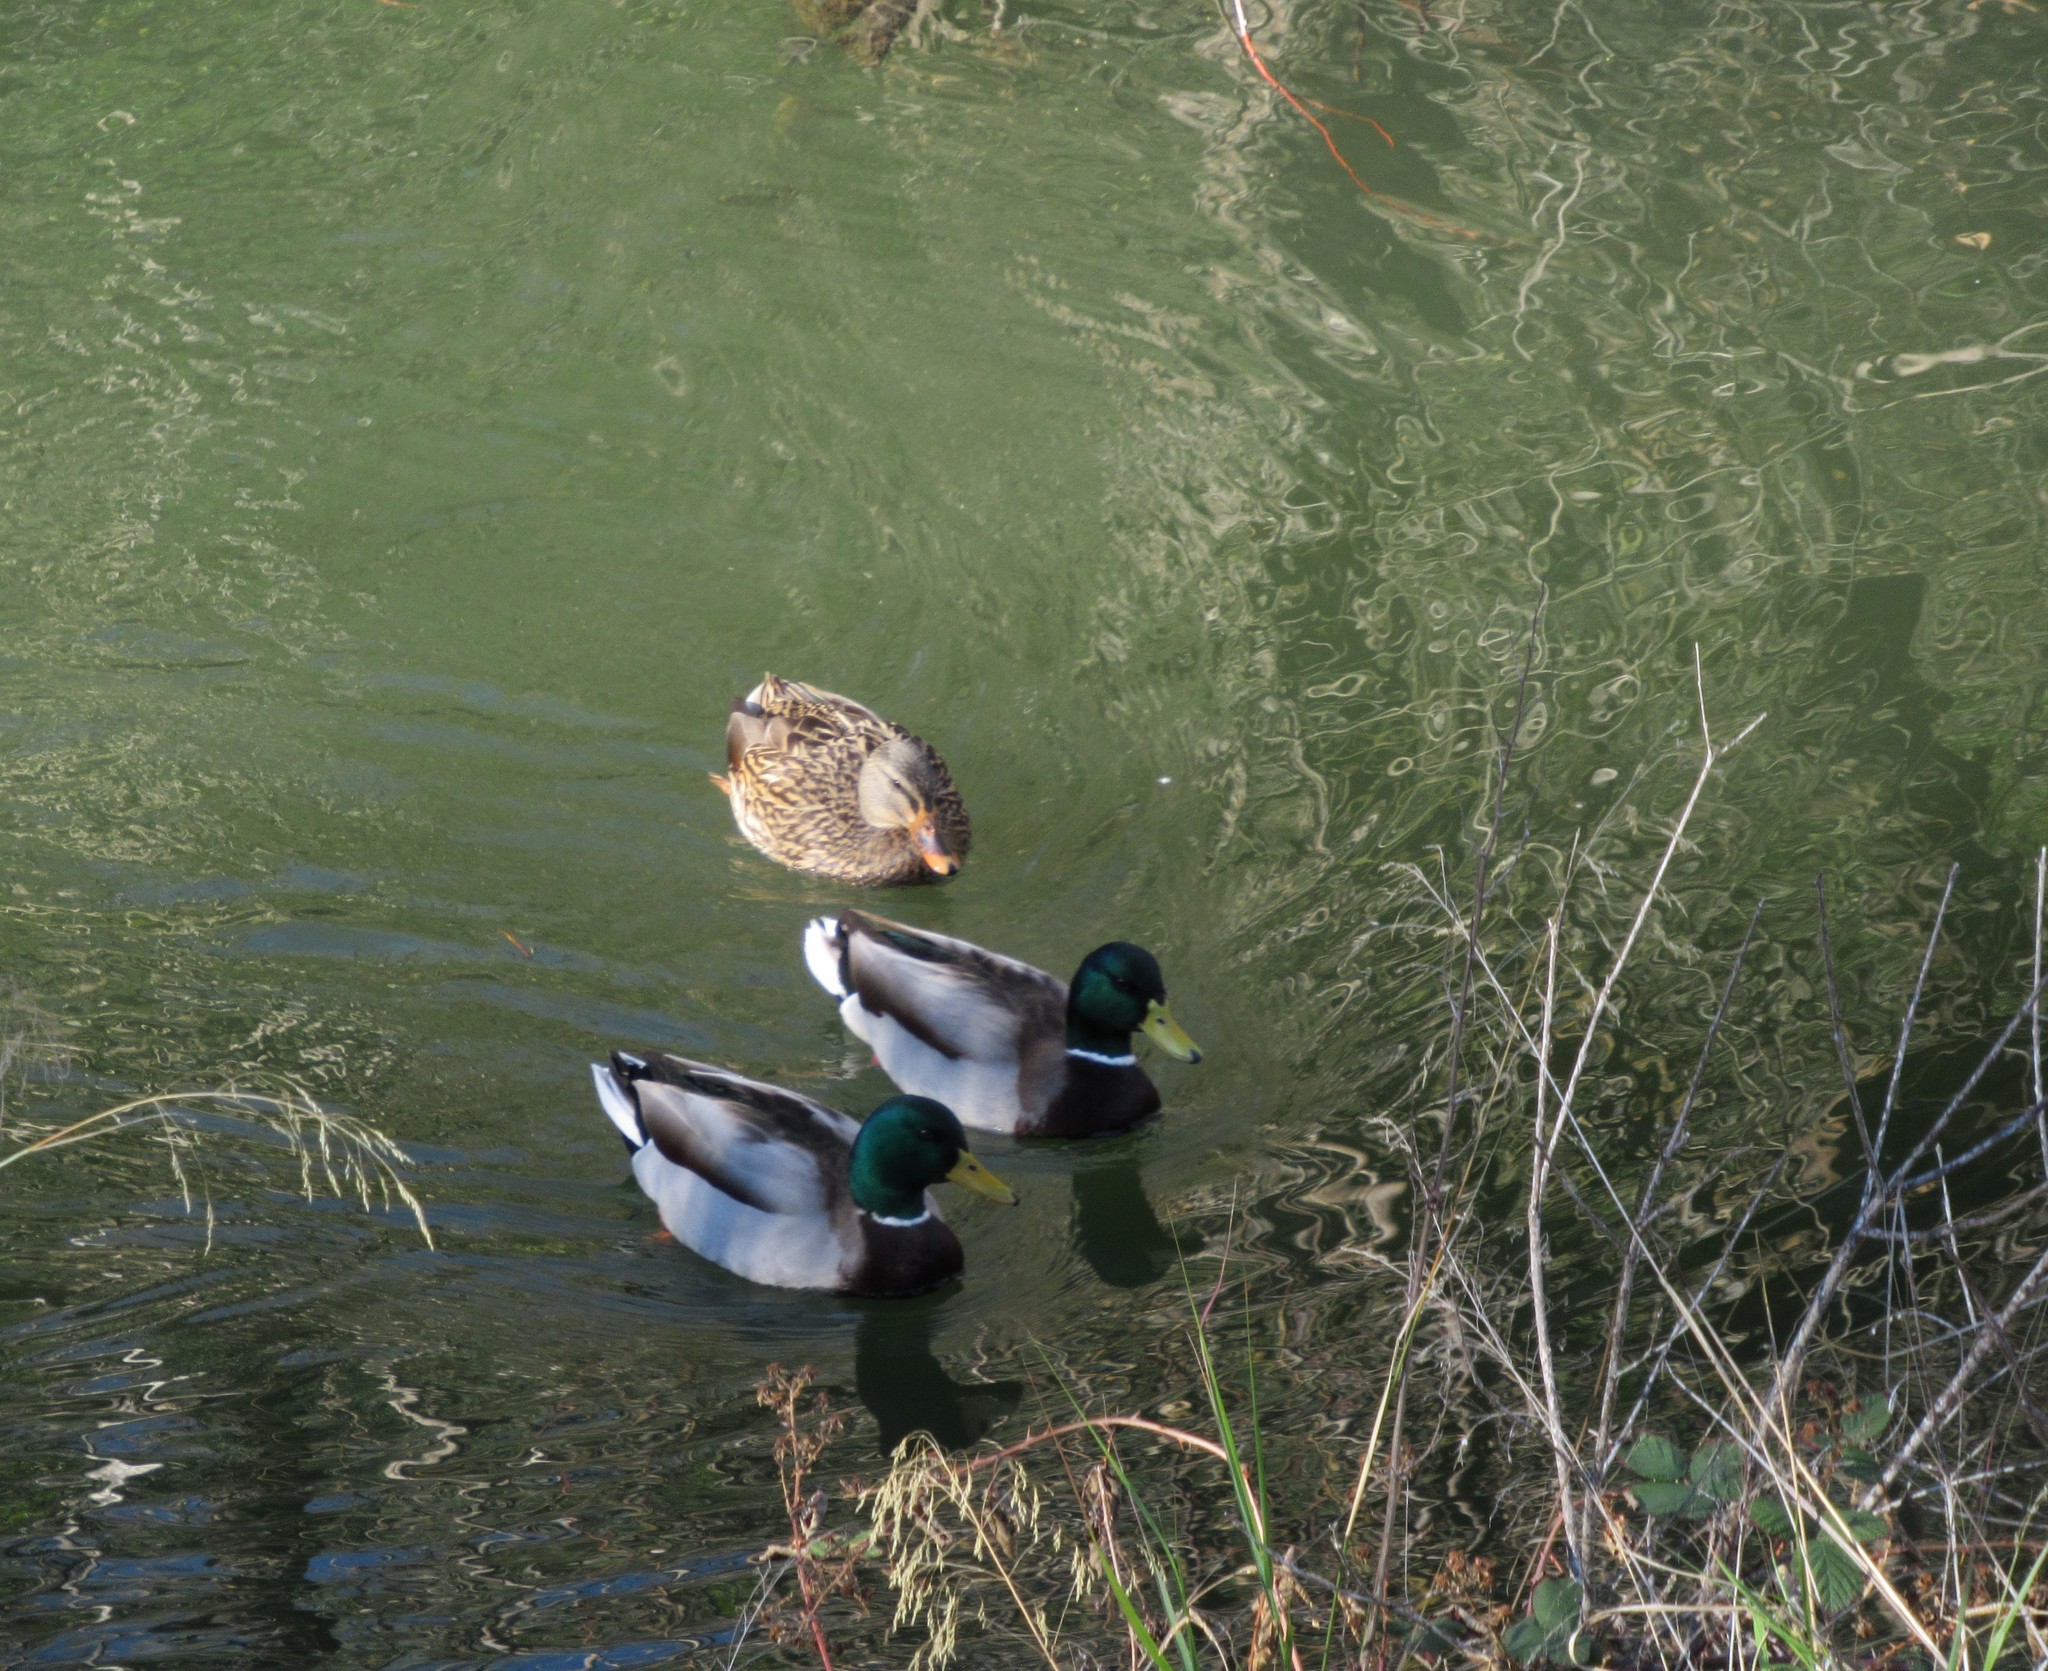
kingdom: Animalia
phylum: Chordata
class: Aves
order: Anseriformes
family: Anatidae
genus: Anas
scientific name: Anas platyrhynchos
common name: Mallard
